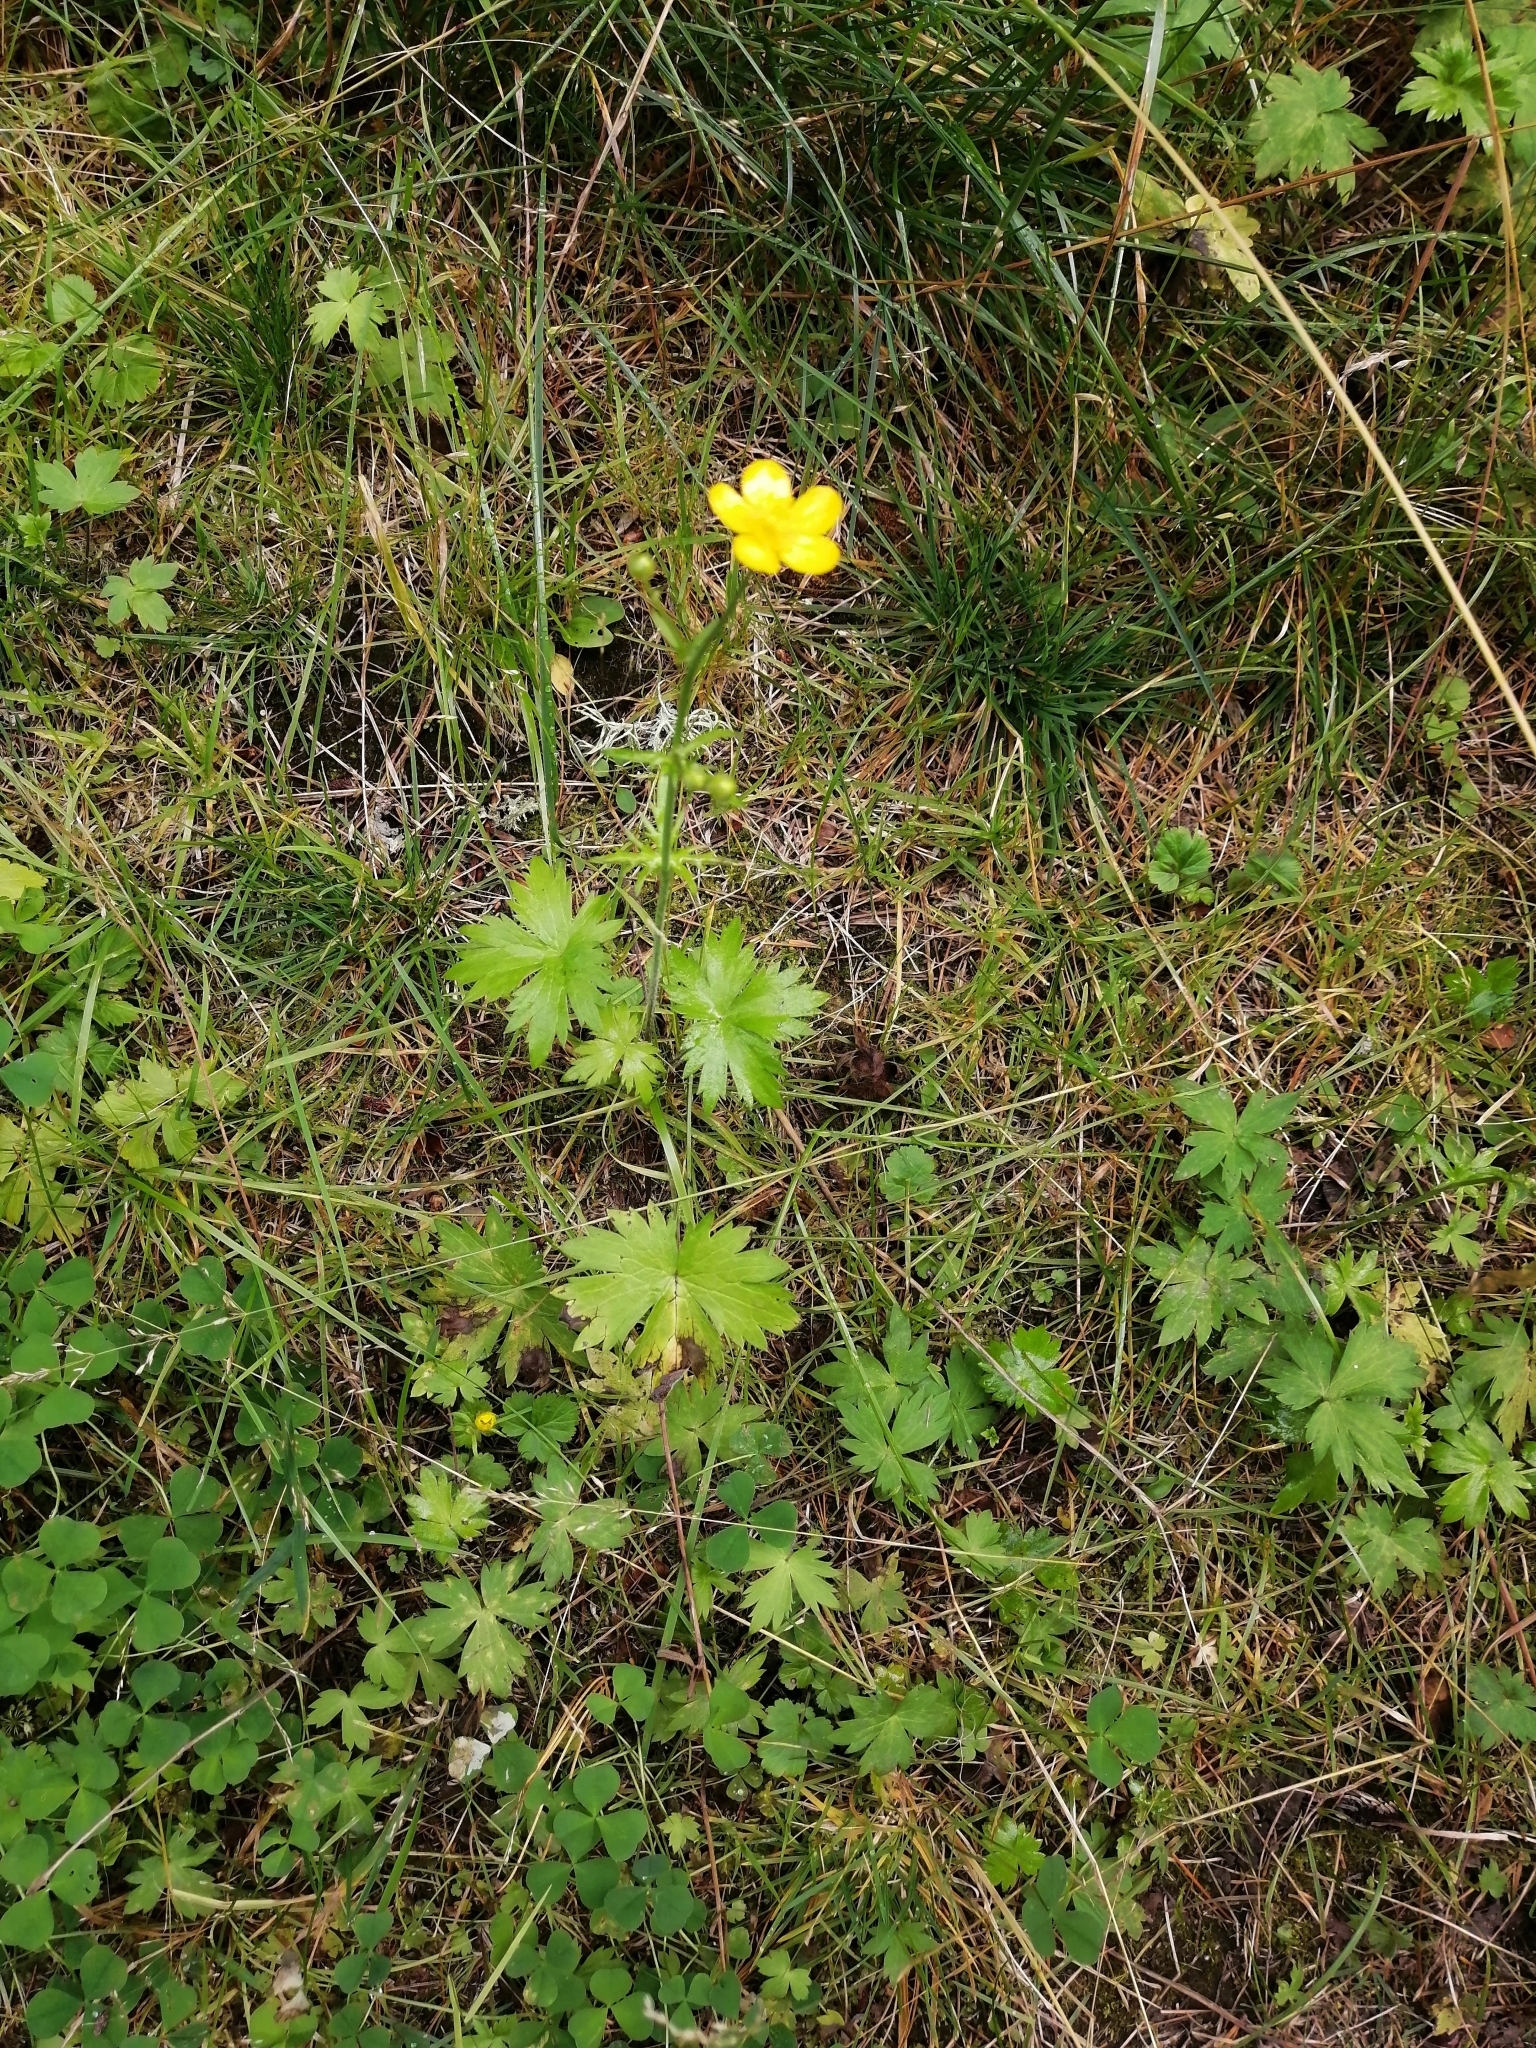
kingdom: Plantae
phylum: Tracheophyta
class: Magnoliopsida
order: Ranunculales
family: Ranunculaceae
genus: Ranunculus
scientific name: Ranunculus propinquus
